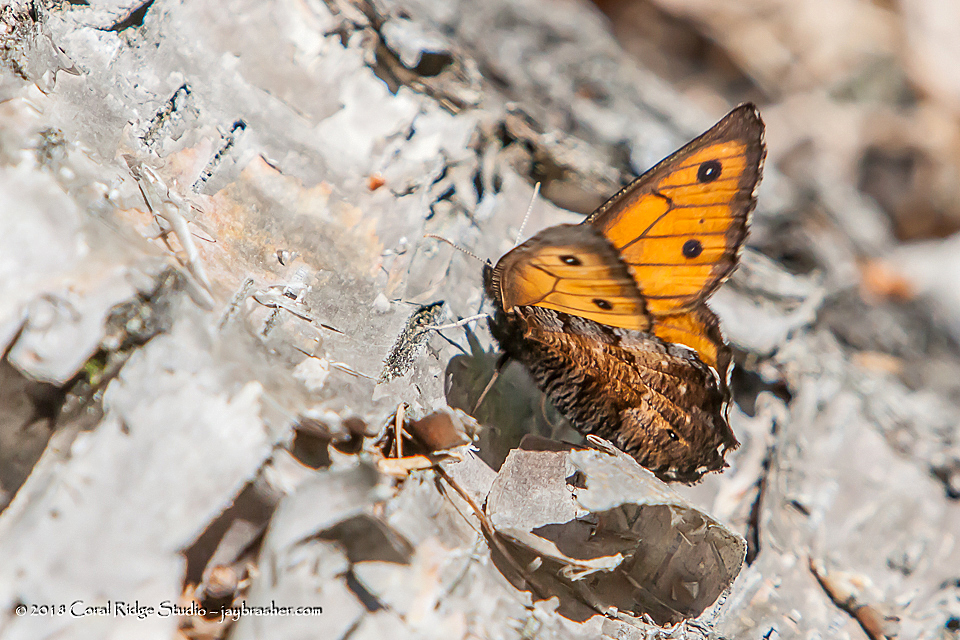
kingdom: Animalia
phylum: Arthropoda
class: Insecta
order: Lepidoptera
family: Nymphalidae
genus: Oeneis
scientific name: Oeneis macounii
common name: Macoun's arctic
